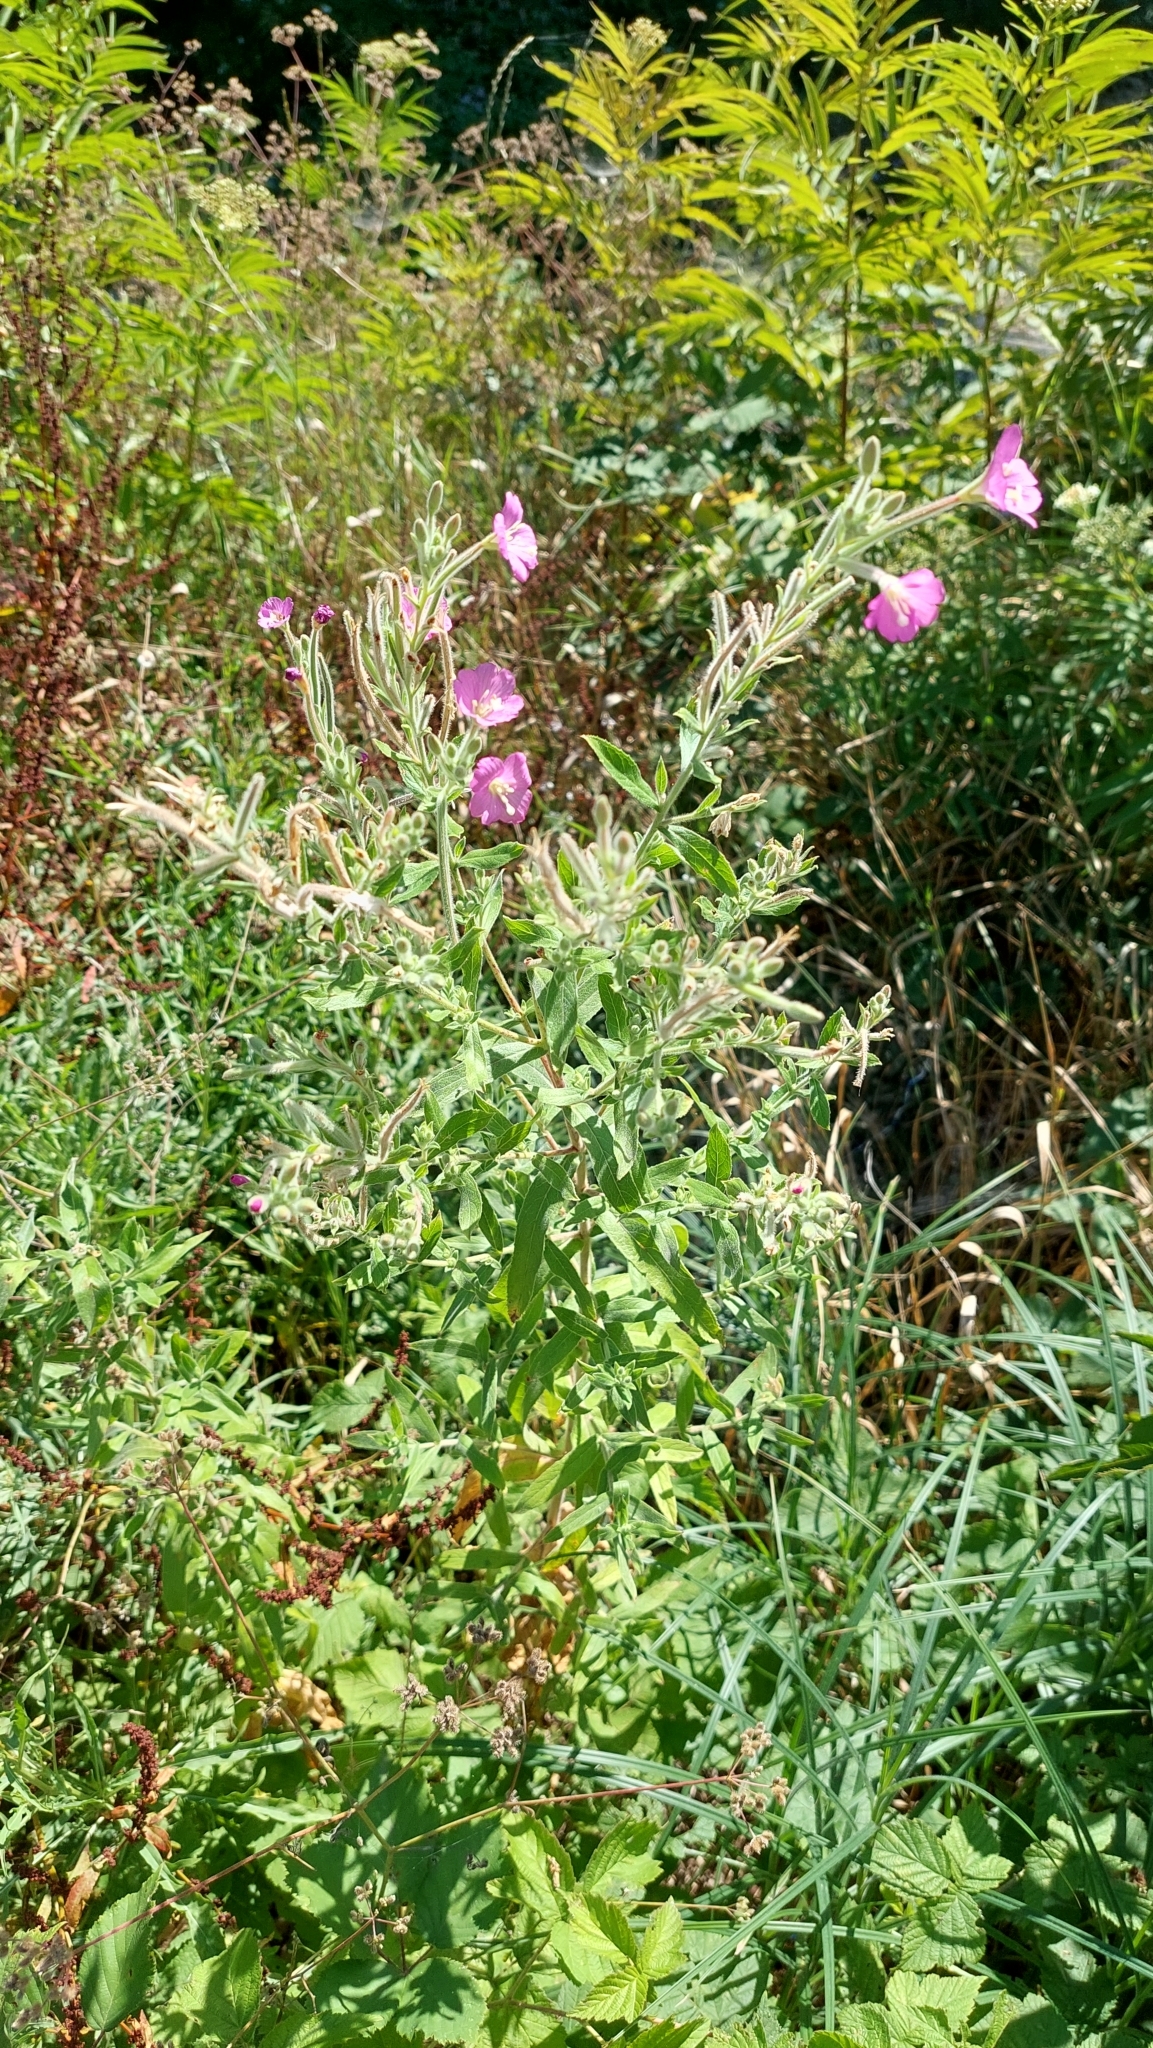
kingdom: Plantae
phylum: Tracheophyta
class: Magnoliopsida
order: Myrtales
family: Onagraceae
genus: Epilobium
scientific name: Epilobium hirsutum
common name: Great willowherb
